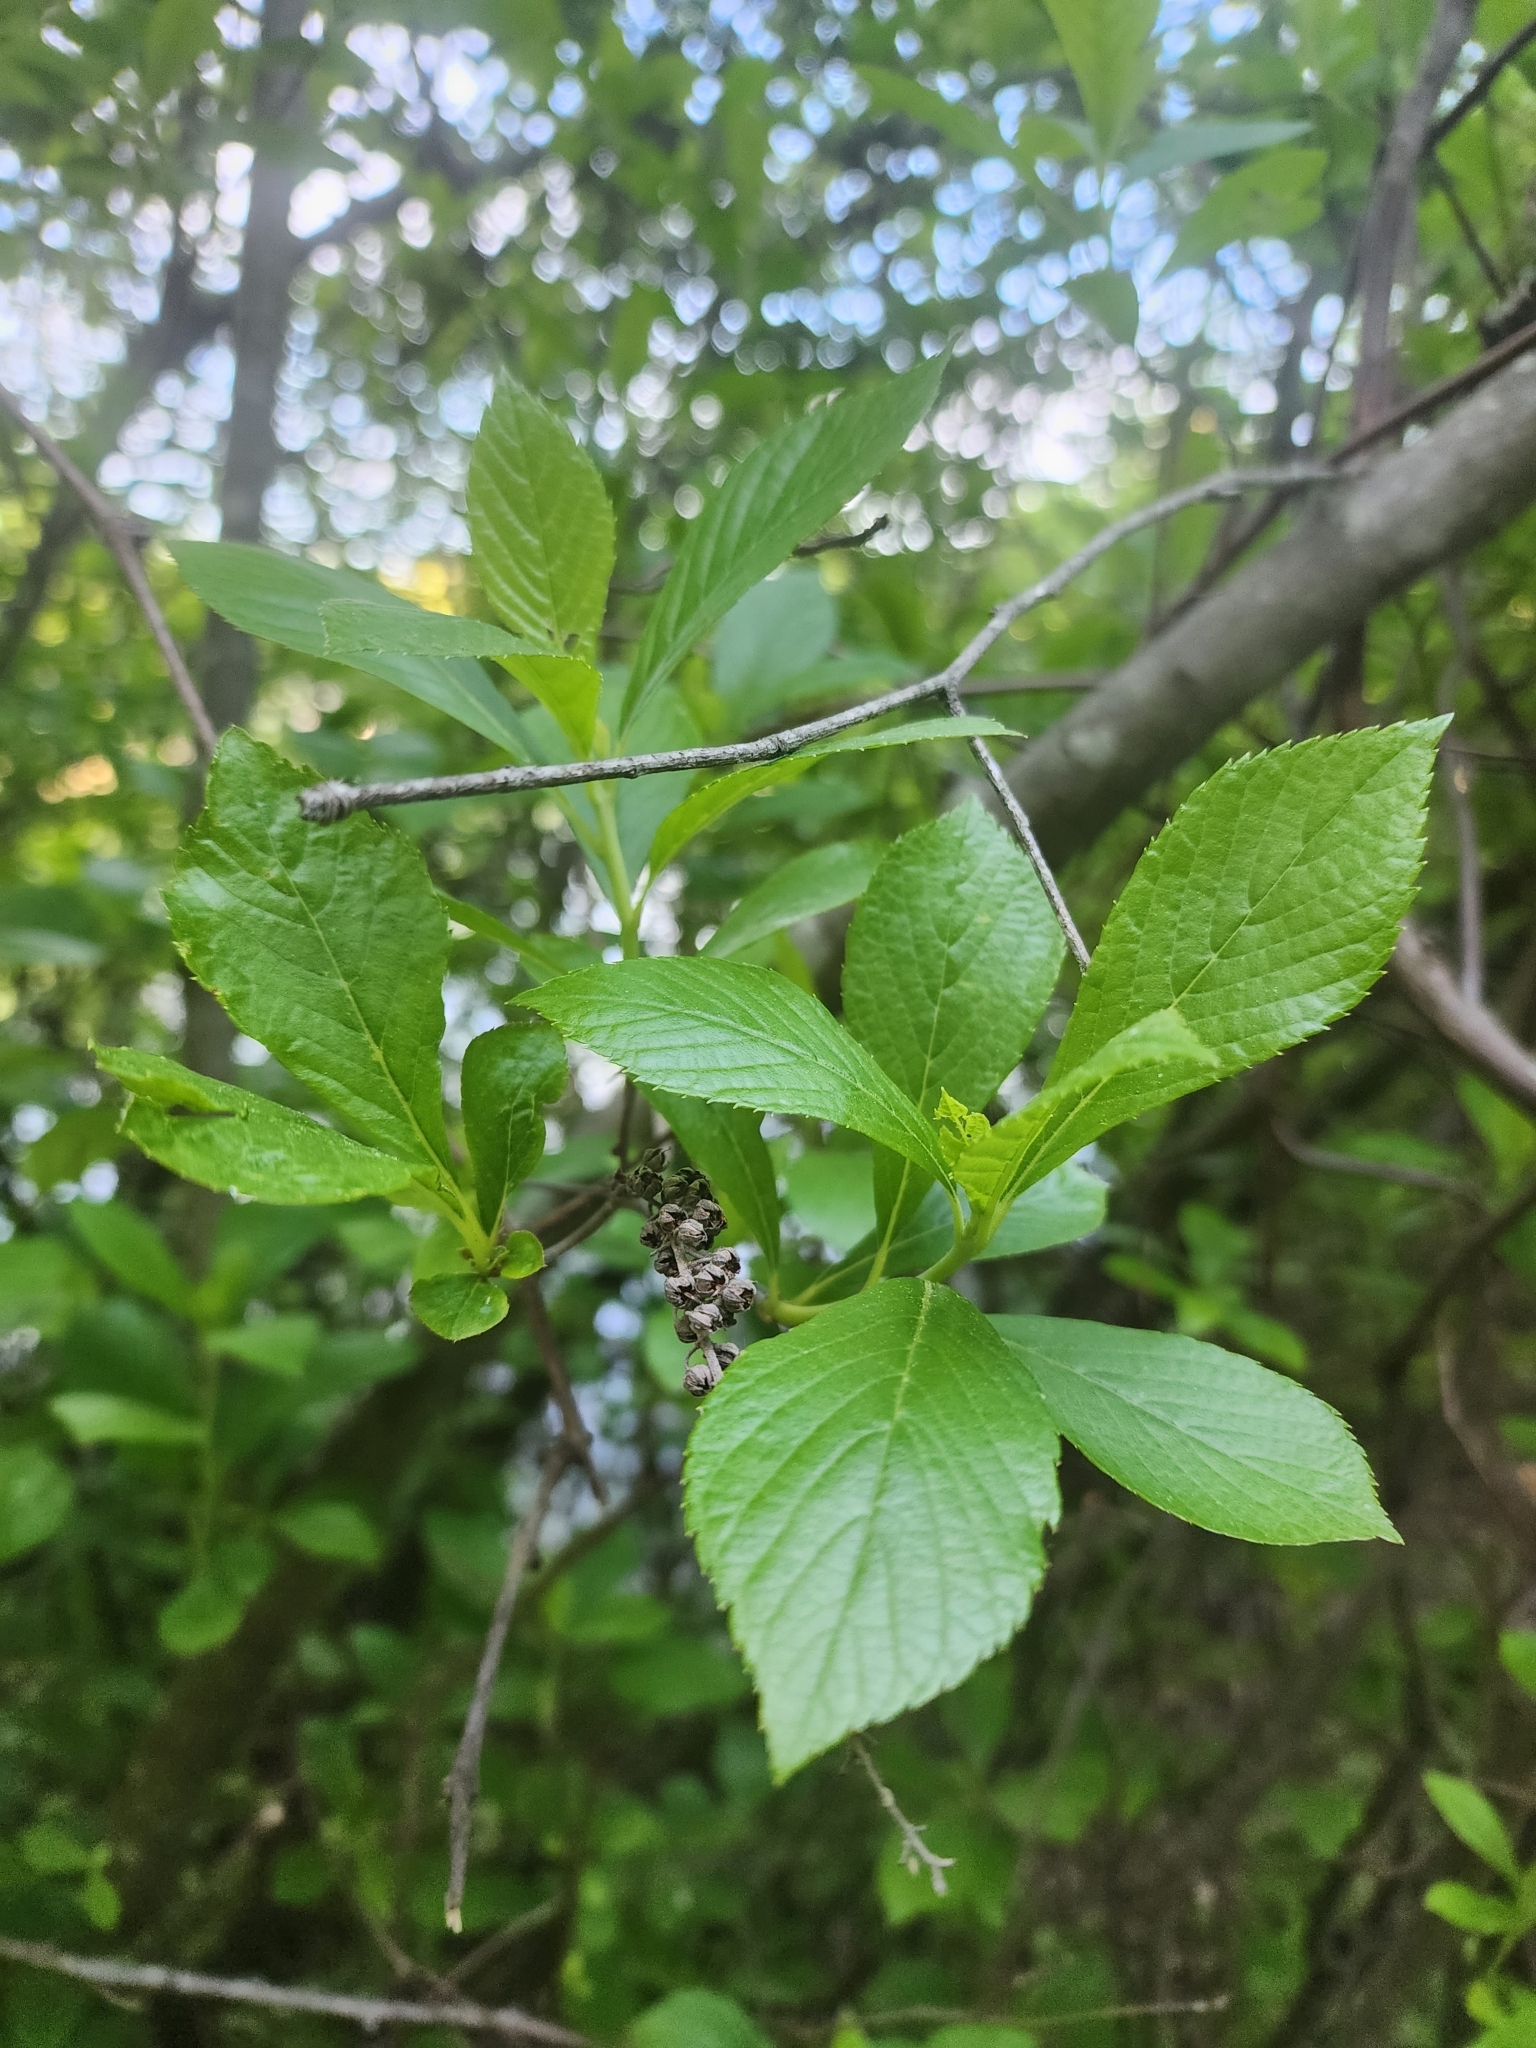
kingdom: Plantae
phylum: Tracheophyta
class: Magnoliopsida
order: Ericales
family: Clethraceae
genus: Clethra
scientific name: Clethra alnifolia
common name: Sweet pepperbush
